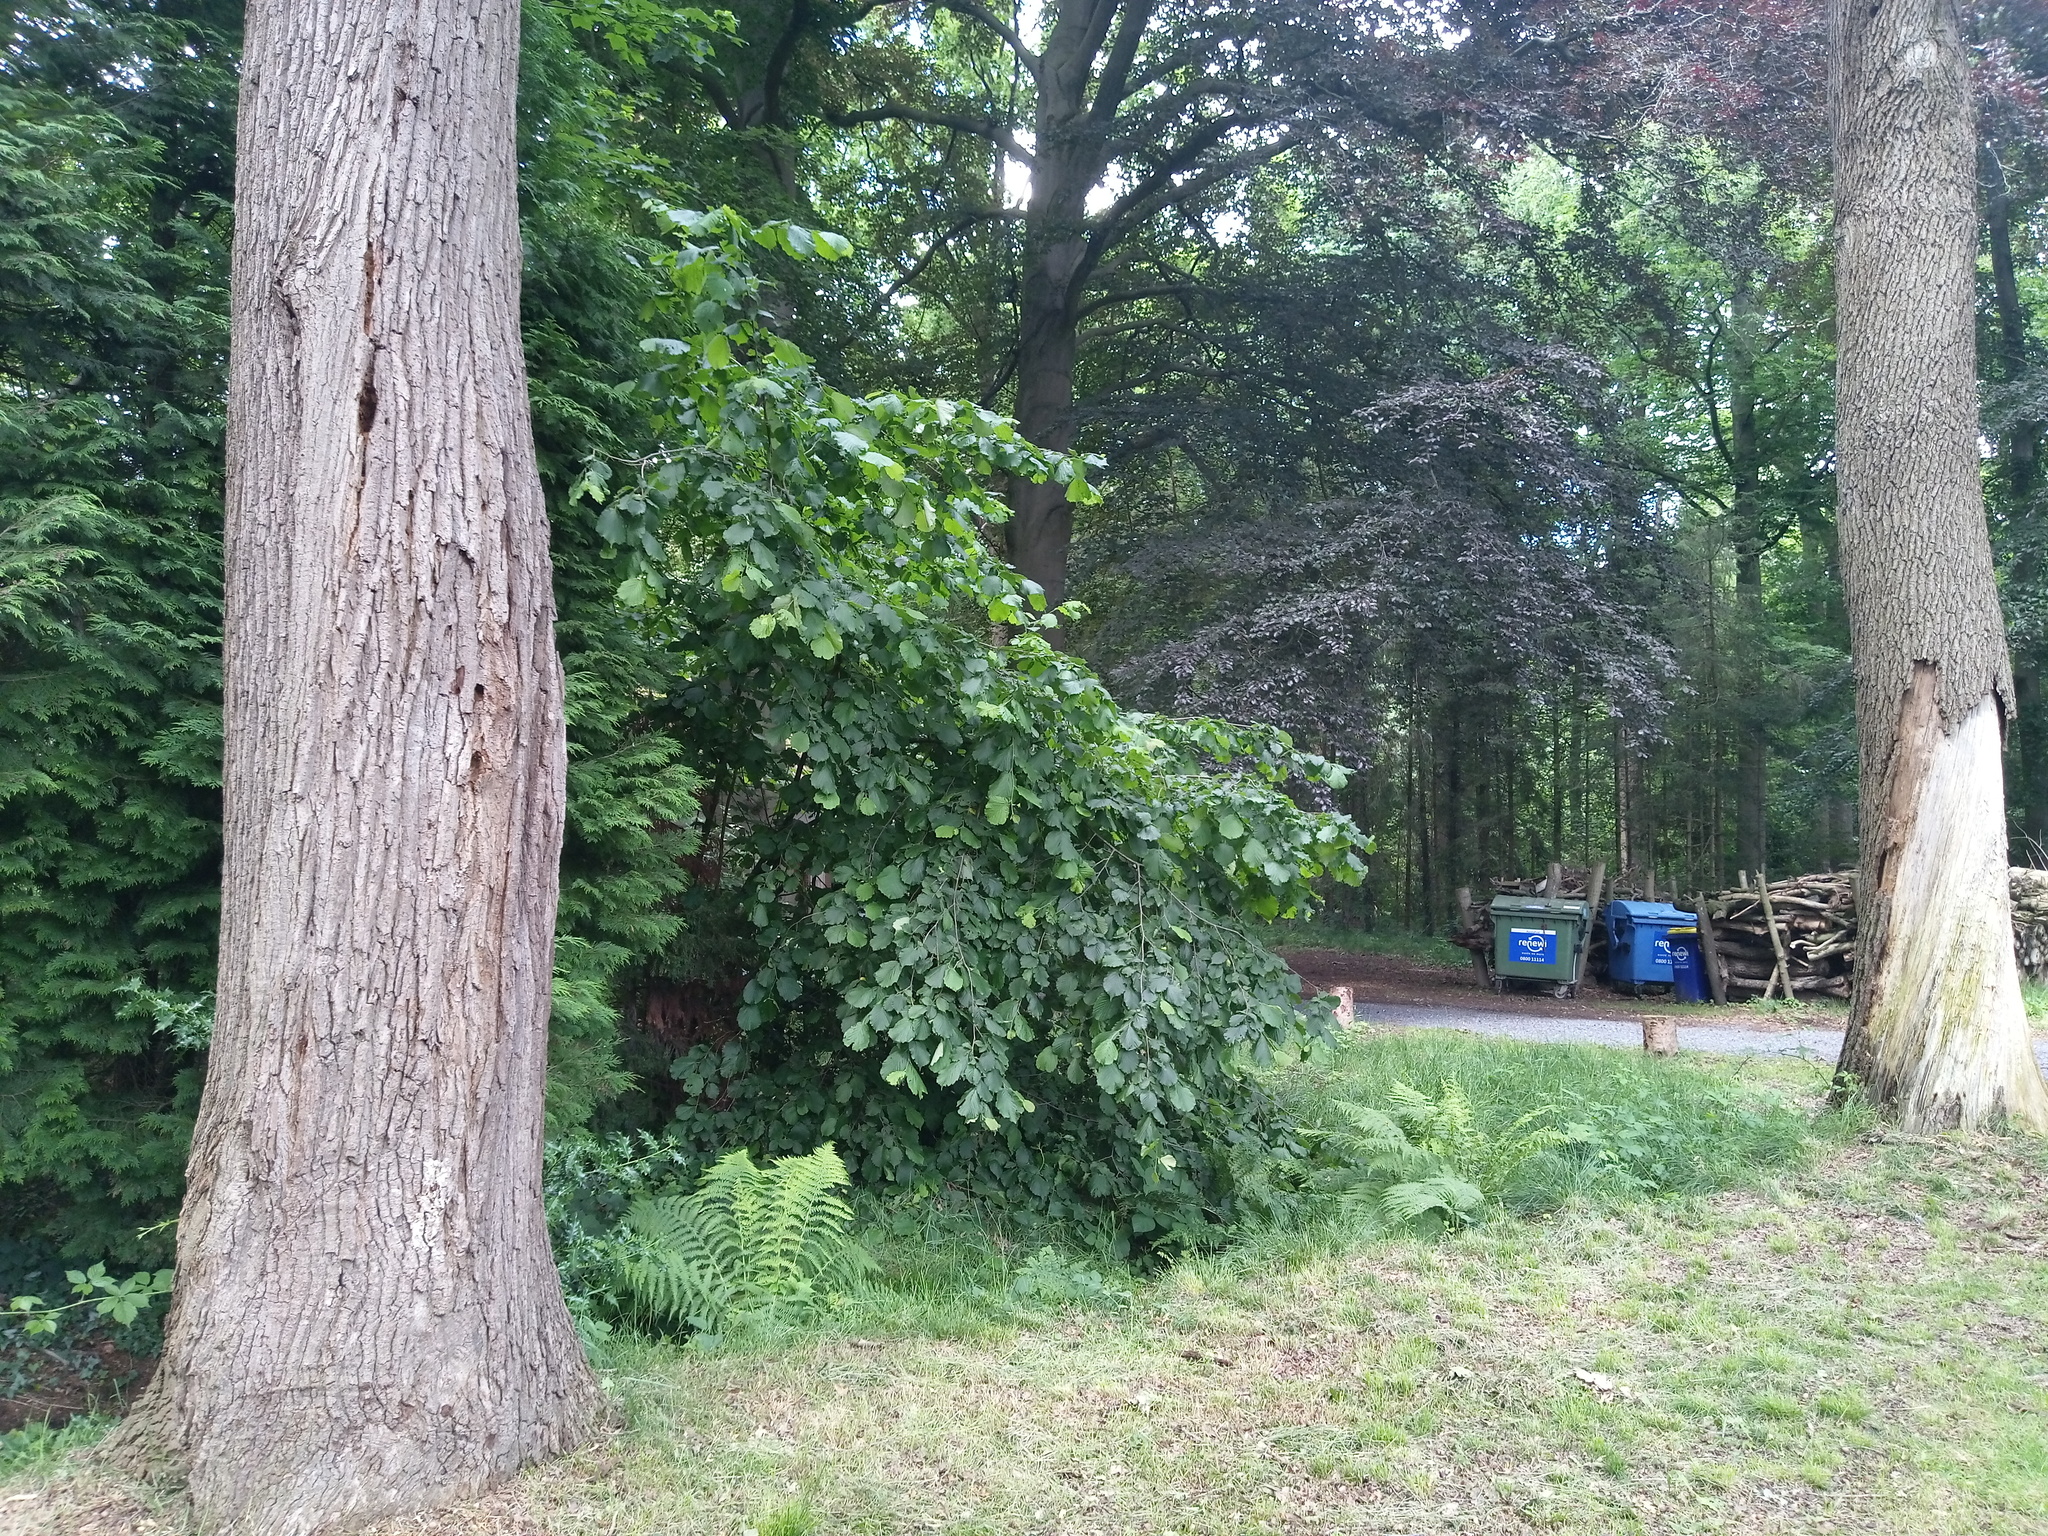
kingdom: Animalia
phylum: Arthropoda
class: Insecta
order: Hymenoptera
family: Vespidae
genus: Vespa
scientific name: Vespa crabro
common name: Hornet
